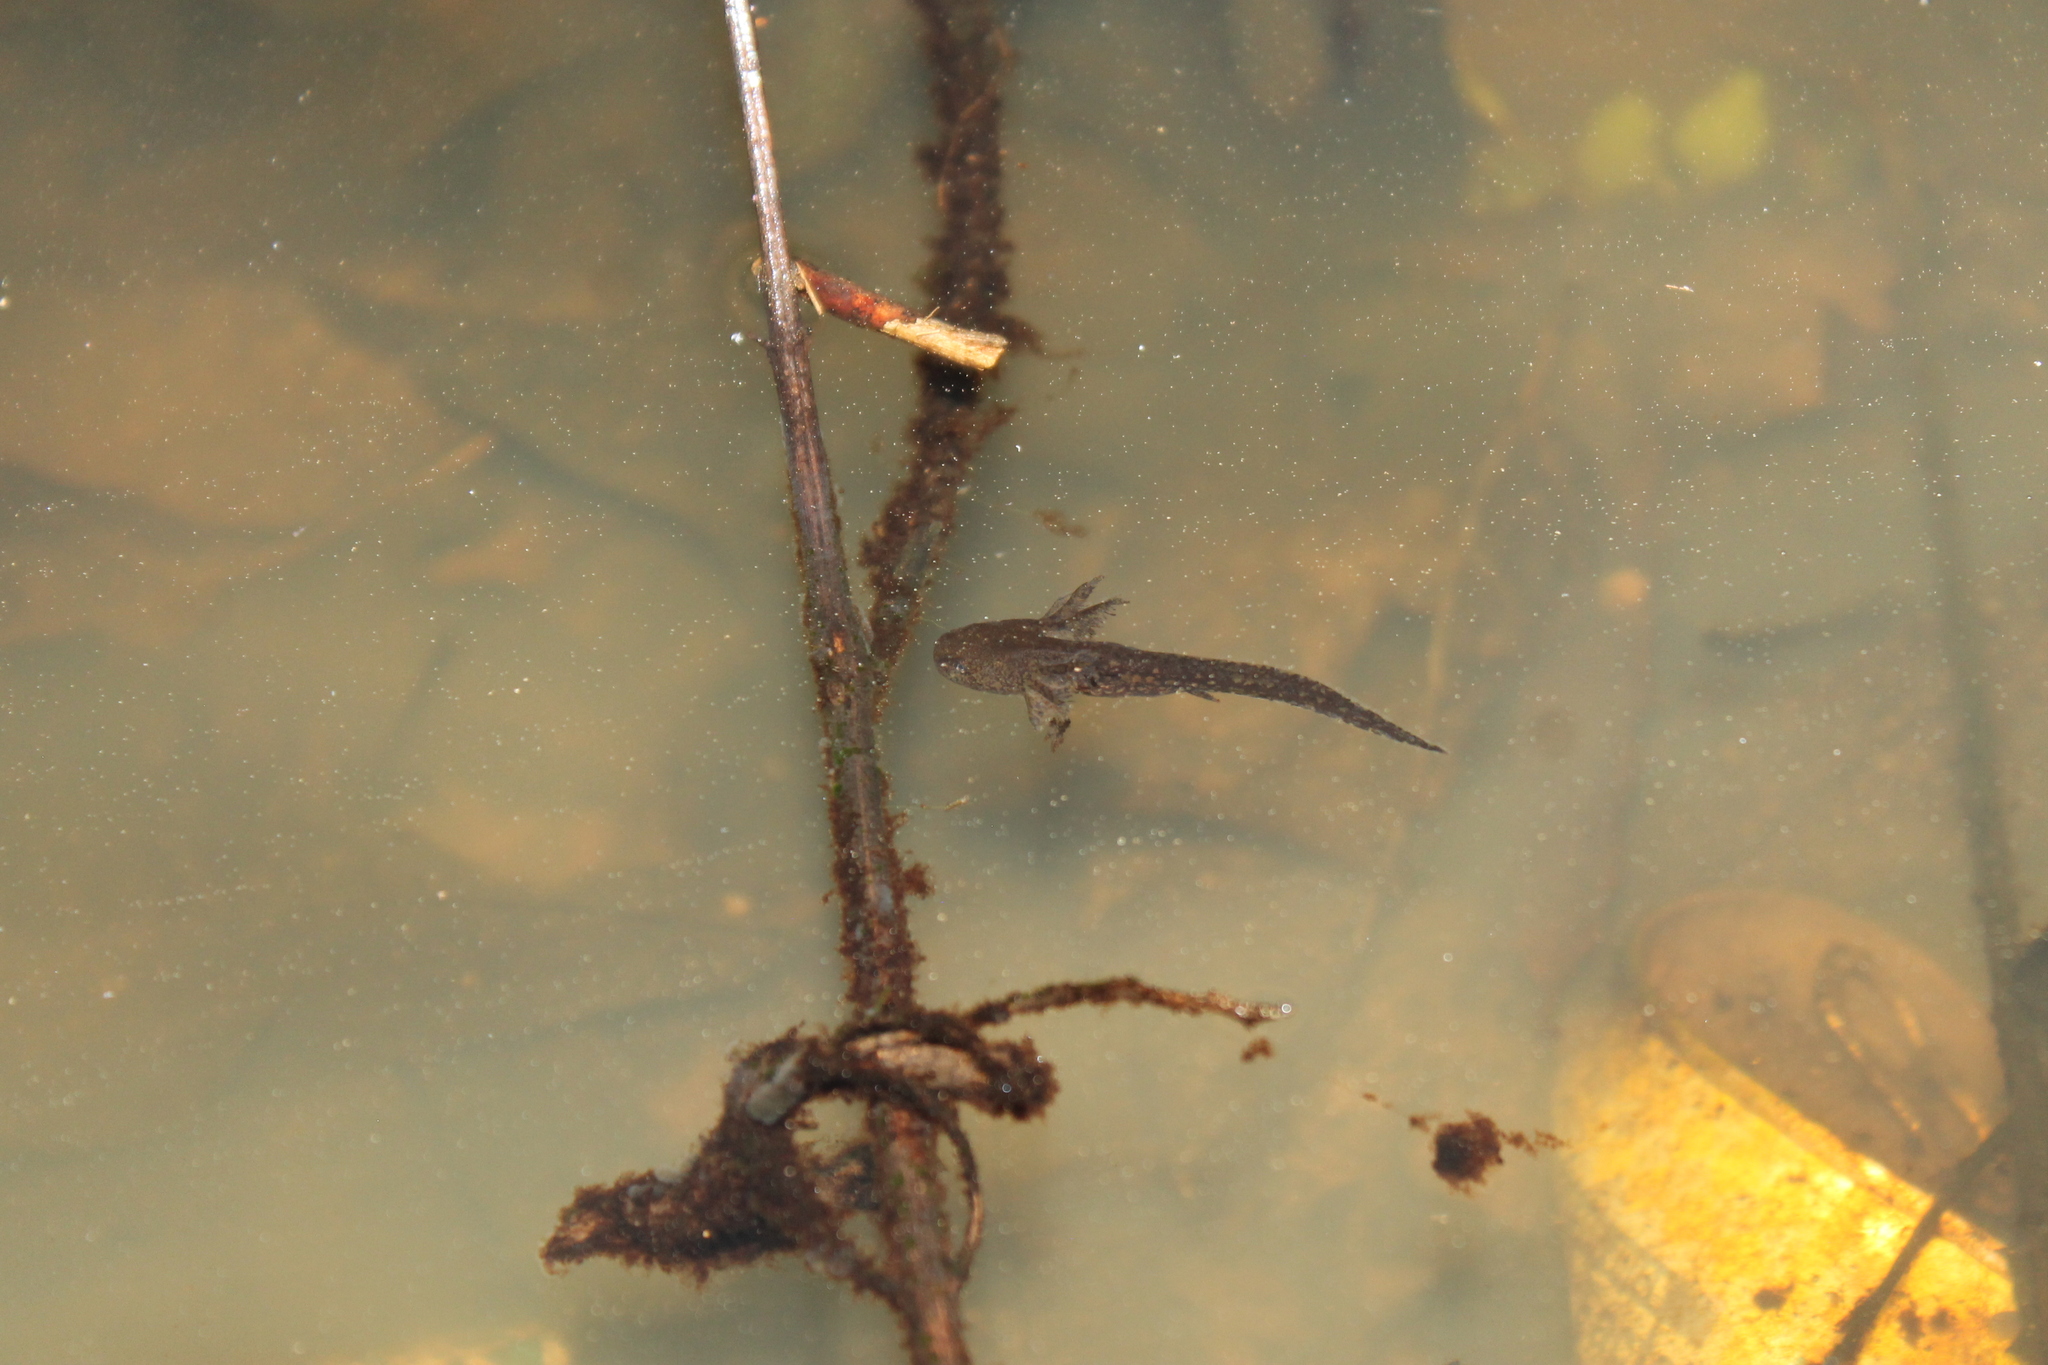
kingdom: Animalia
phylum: Chordata
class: Amphibia
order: Caudata
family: Ambystomatidae
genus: Ambystoma
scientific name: Ambystoma opacum
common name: Marbled salamander
